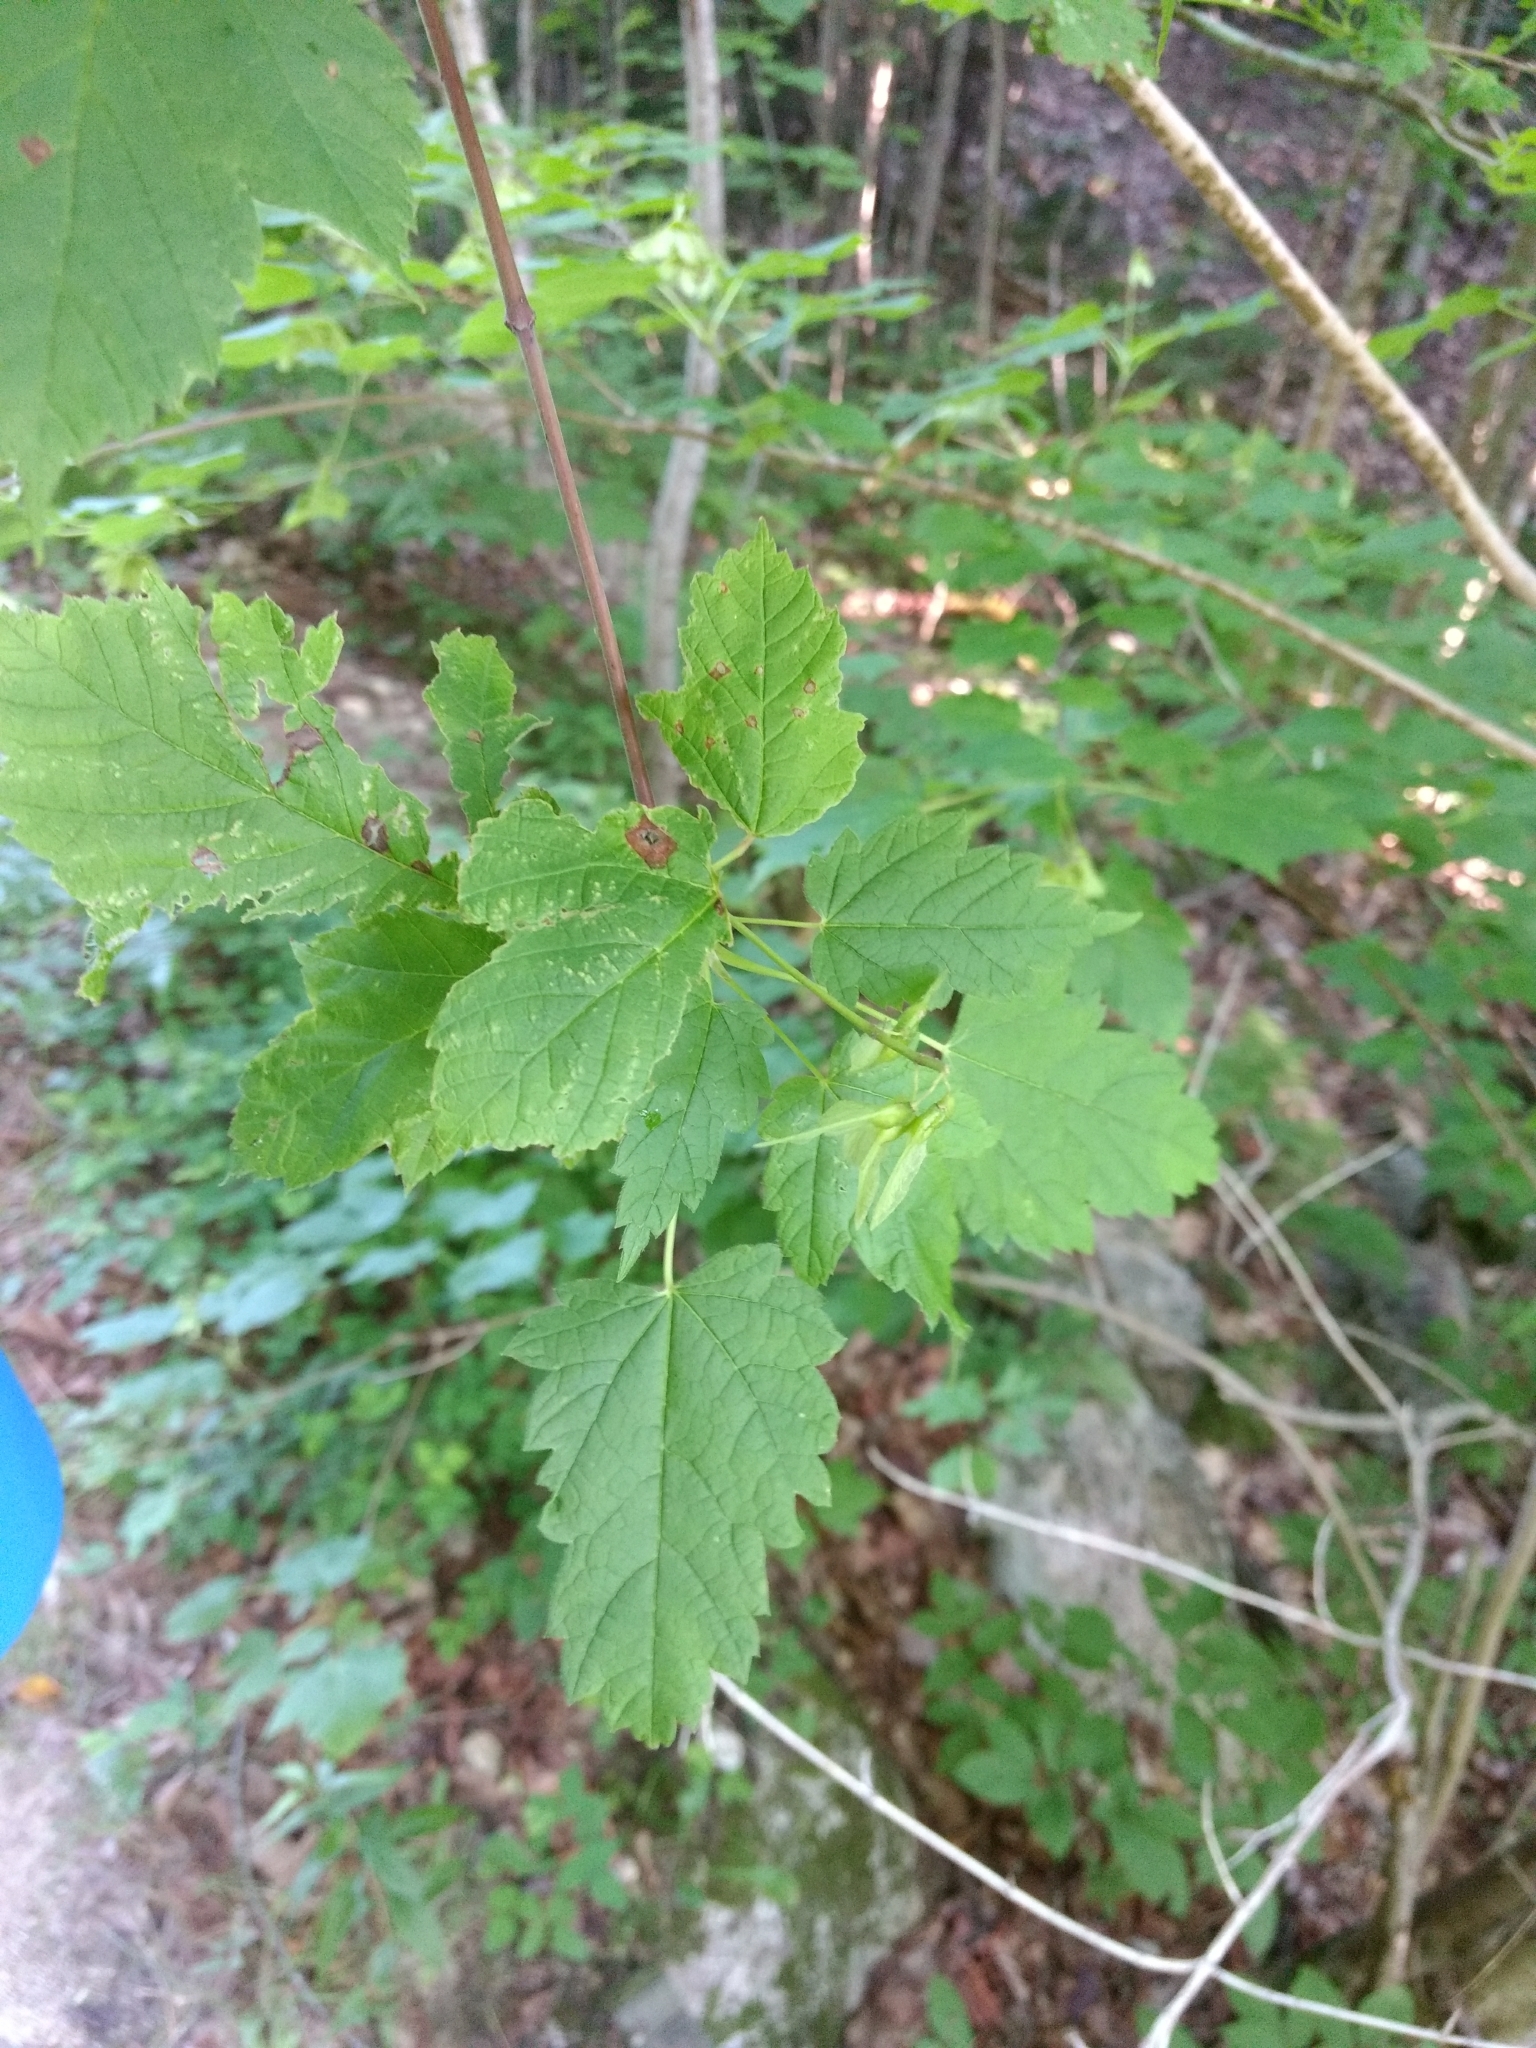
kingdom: Plantae
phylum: Tracheophyta
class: Magnoliopsida
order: Sapindales
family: Sapindaceae
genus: Acer
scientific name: Acer spicatum
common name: Mountain maple
